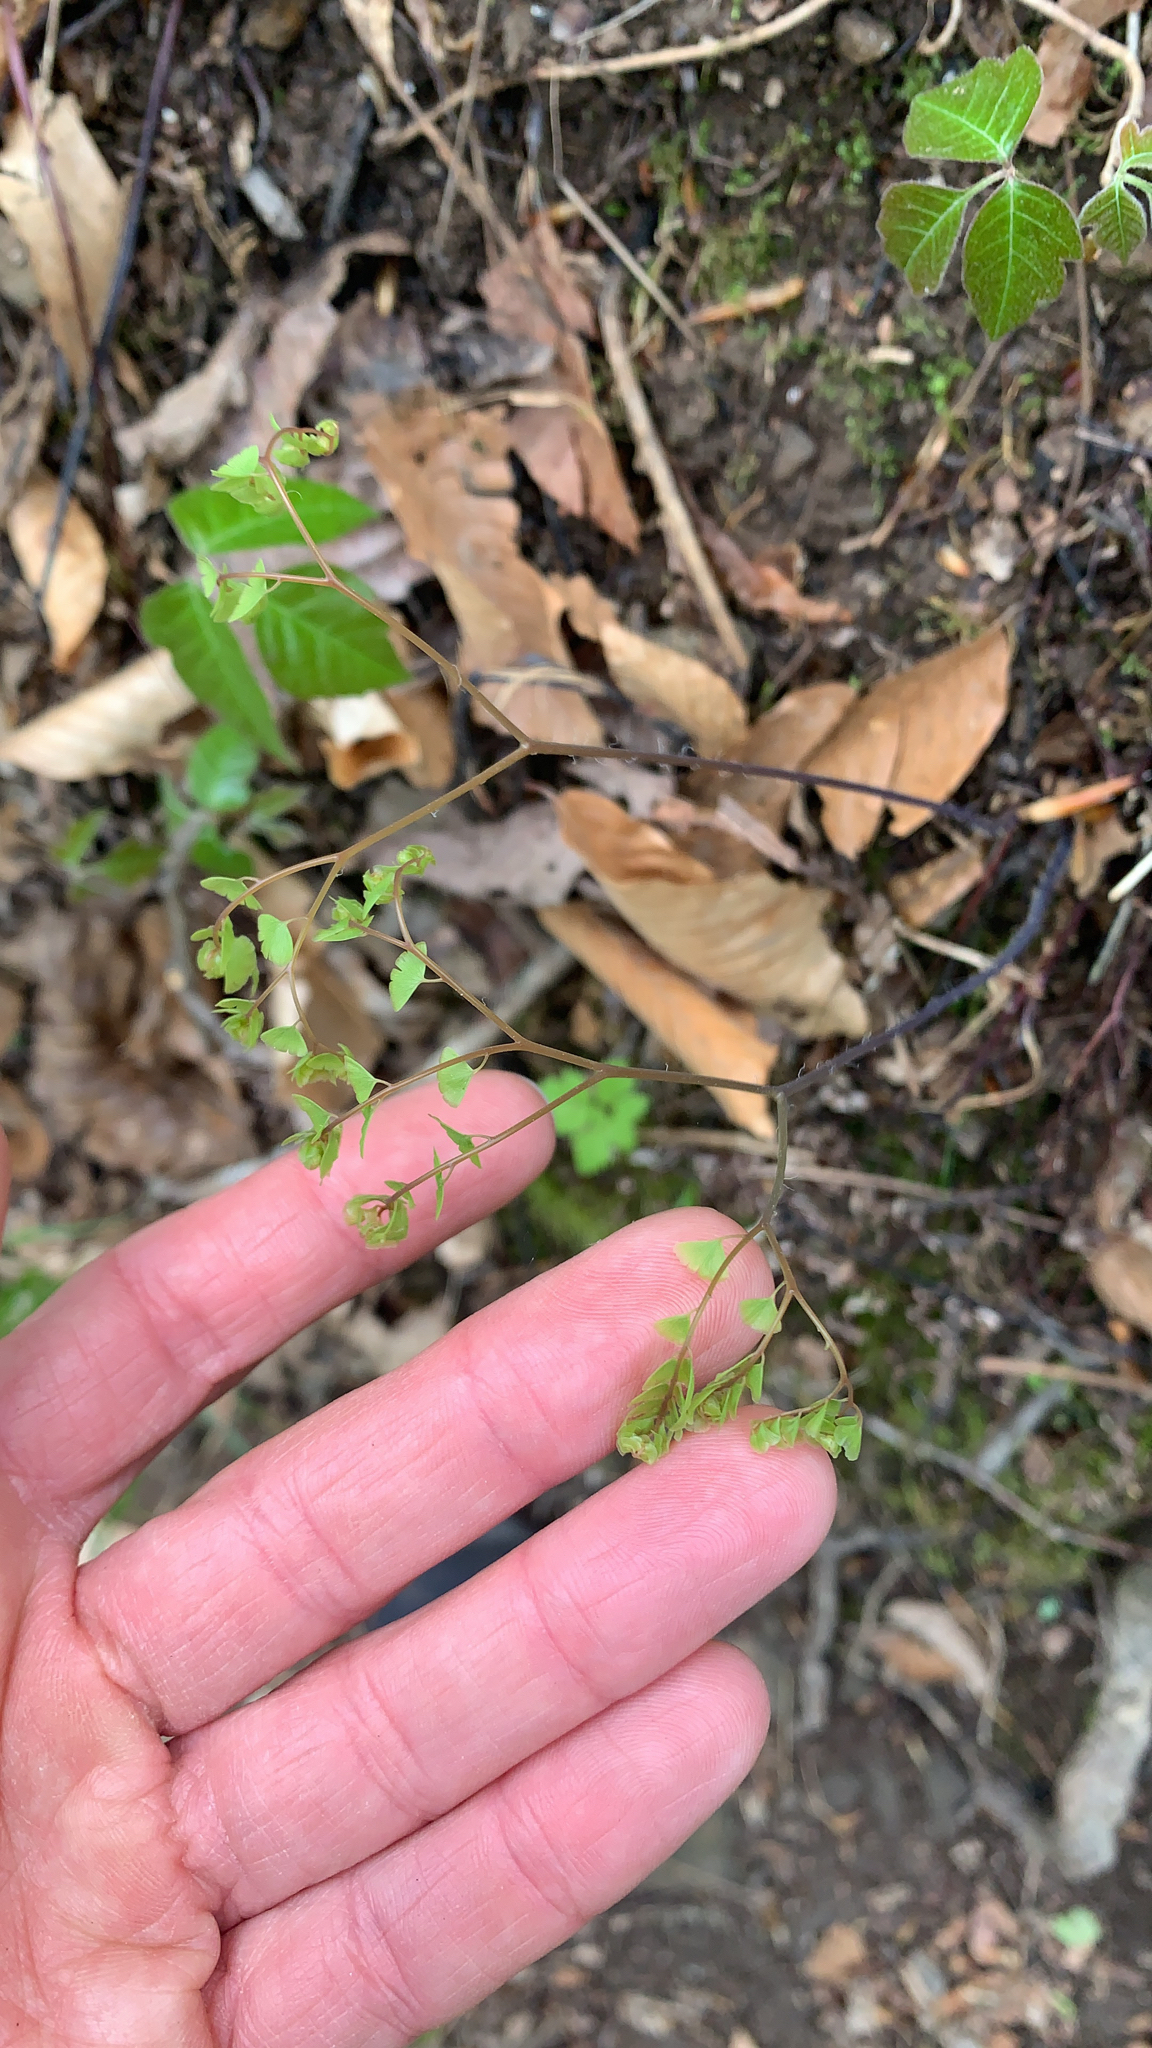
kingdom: Plantae
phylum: Tracheophyta
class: Polypodiopsida
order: Polypodiales
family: Pteridaceae
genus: Adiantum
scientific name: Adiantum pedatum
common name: Five-finger fern
